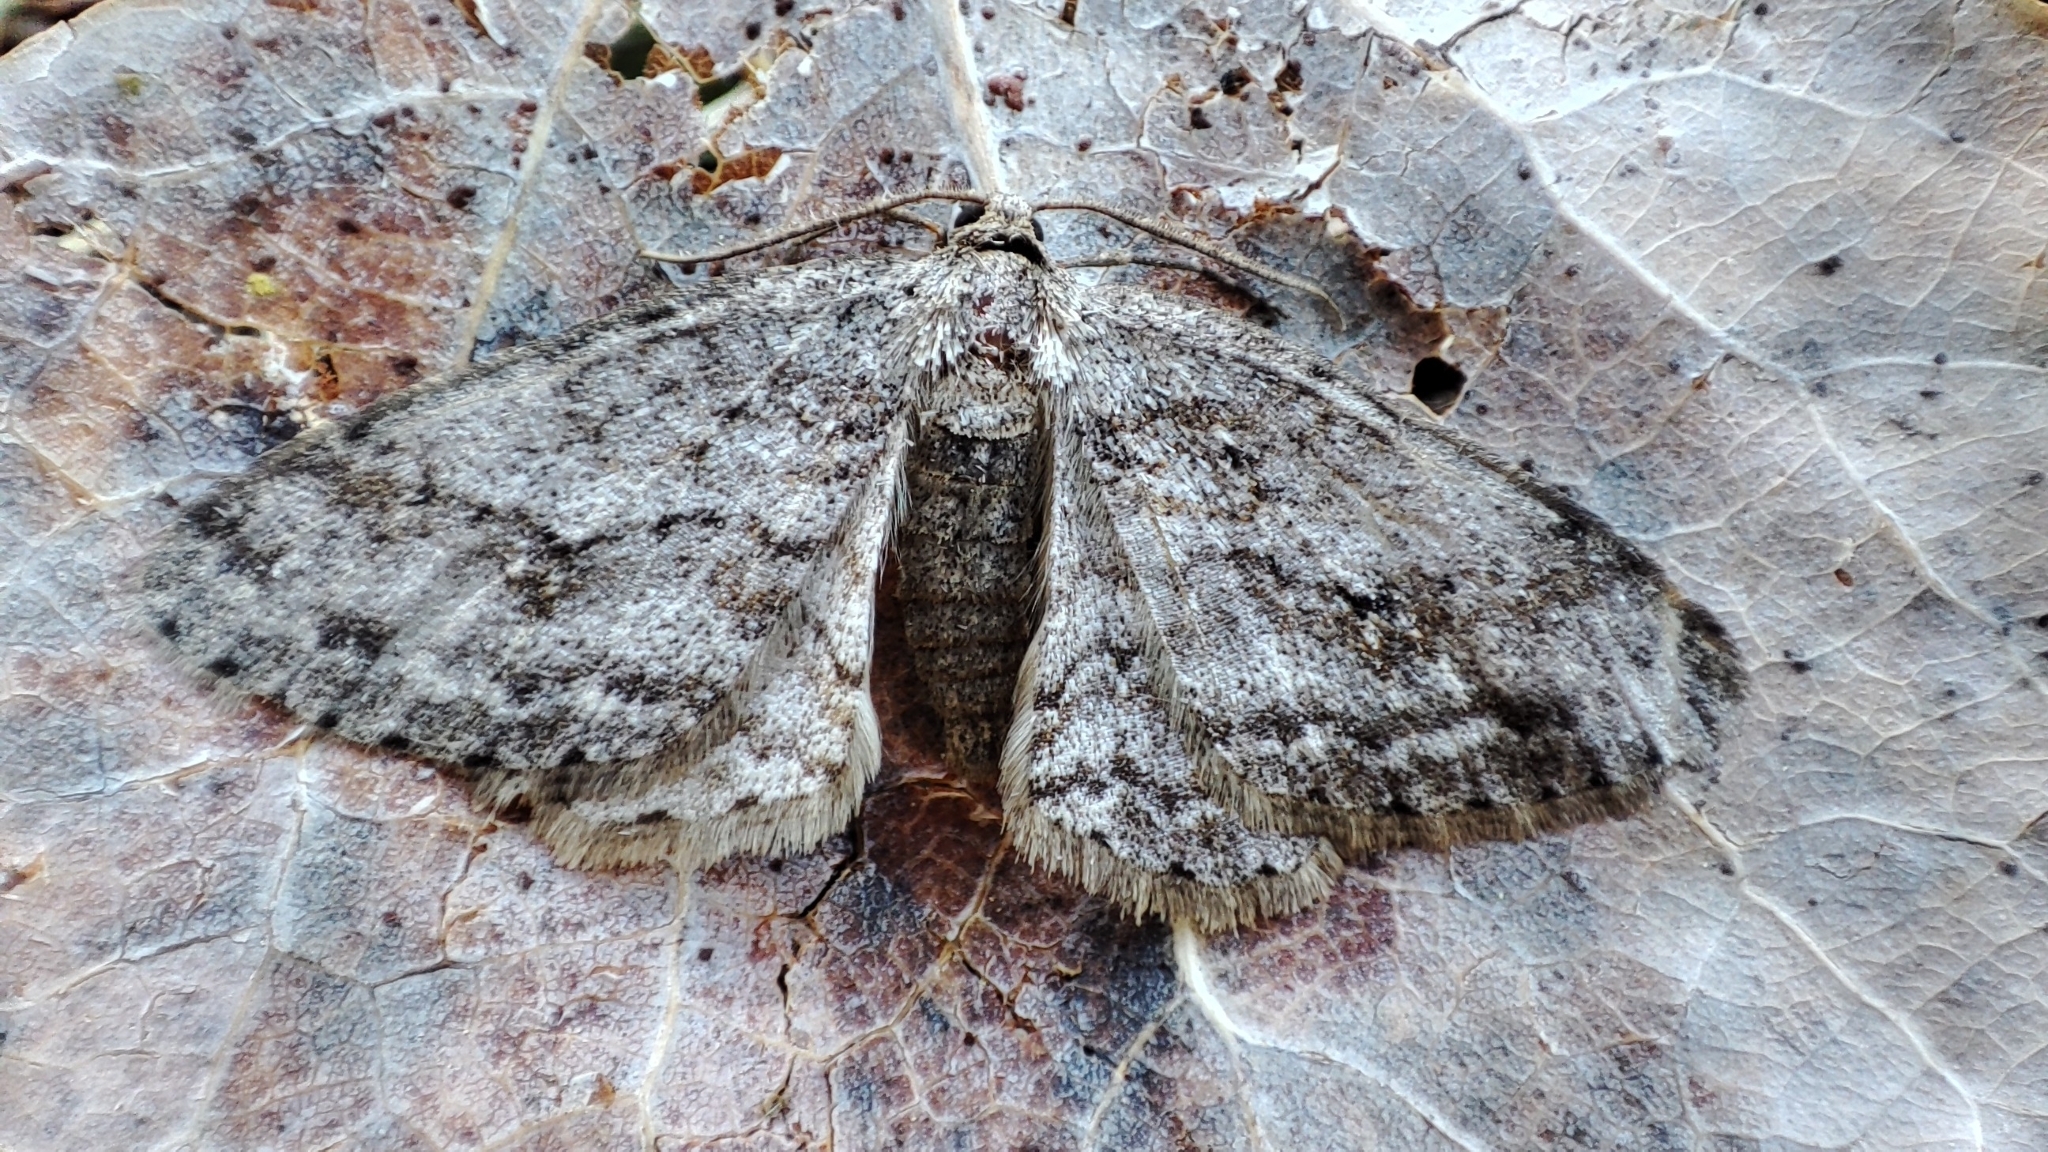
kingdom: Animalia
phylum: Arthropoda
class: Insecta
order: Lepidoptera
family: Geometridae
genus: Ectropis
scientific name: Ectropis crepuscularia
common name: Engrailed
